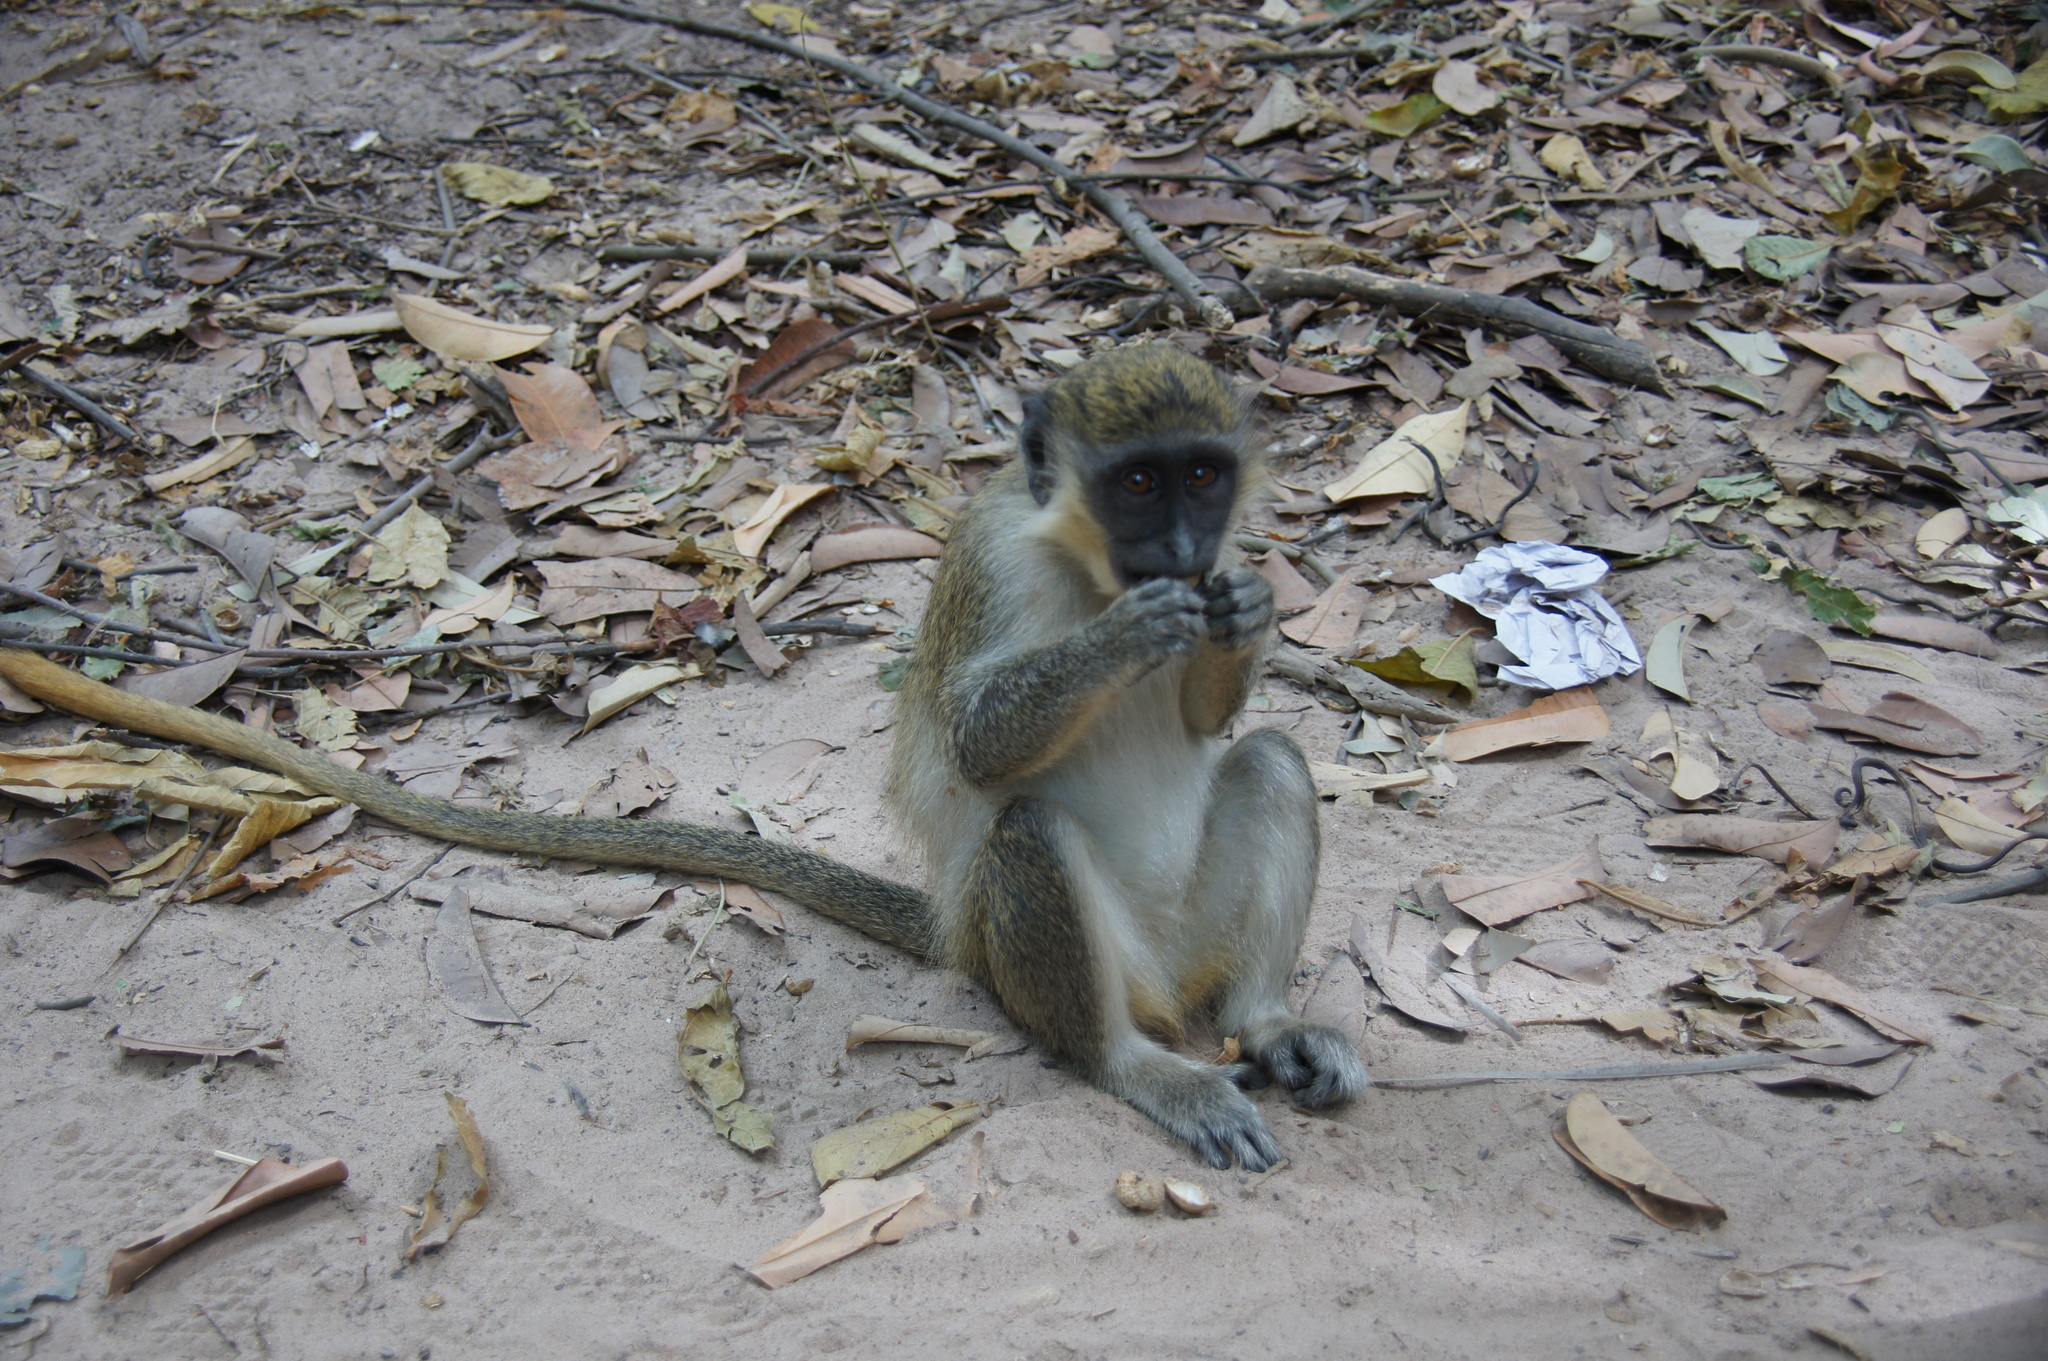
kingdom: Animalia
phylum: Chordata
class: Mammalia
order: Primates
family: Cercopithecidae
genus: Chlorocebus
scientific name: Chlorocebus sabaeus
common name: Green monkey
